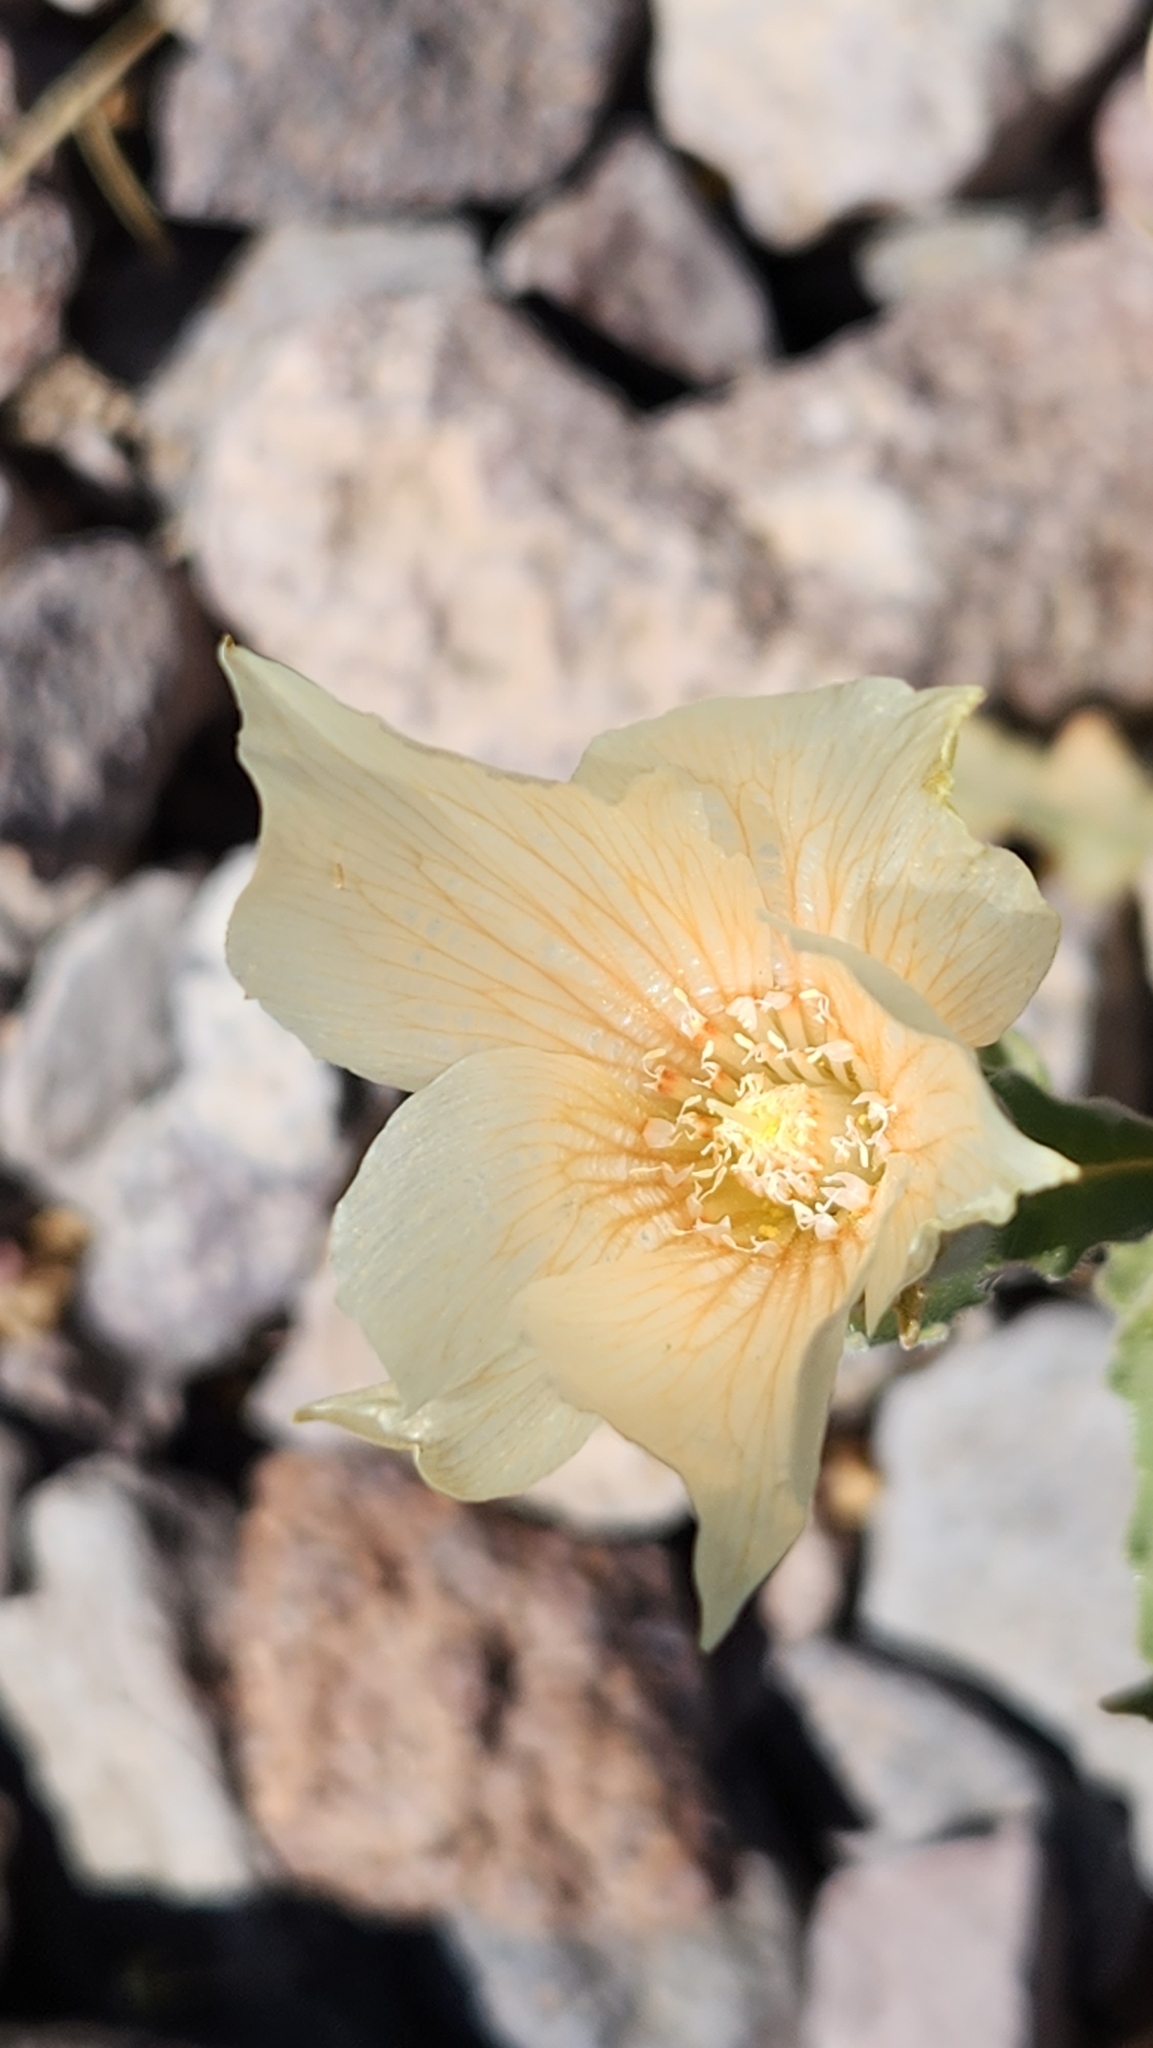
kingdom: Plantae
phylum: Tracheophyta
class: Magnoliopsida
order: Cornales
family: Loasaceae
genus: Mentzelia
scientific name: Mentzelia involucrata
